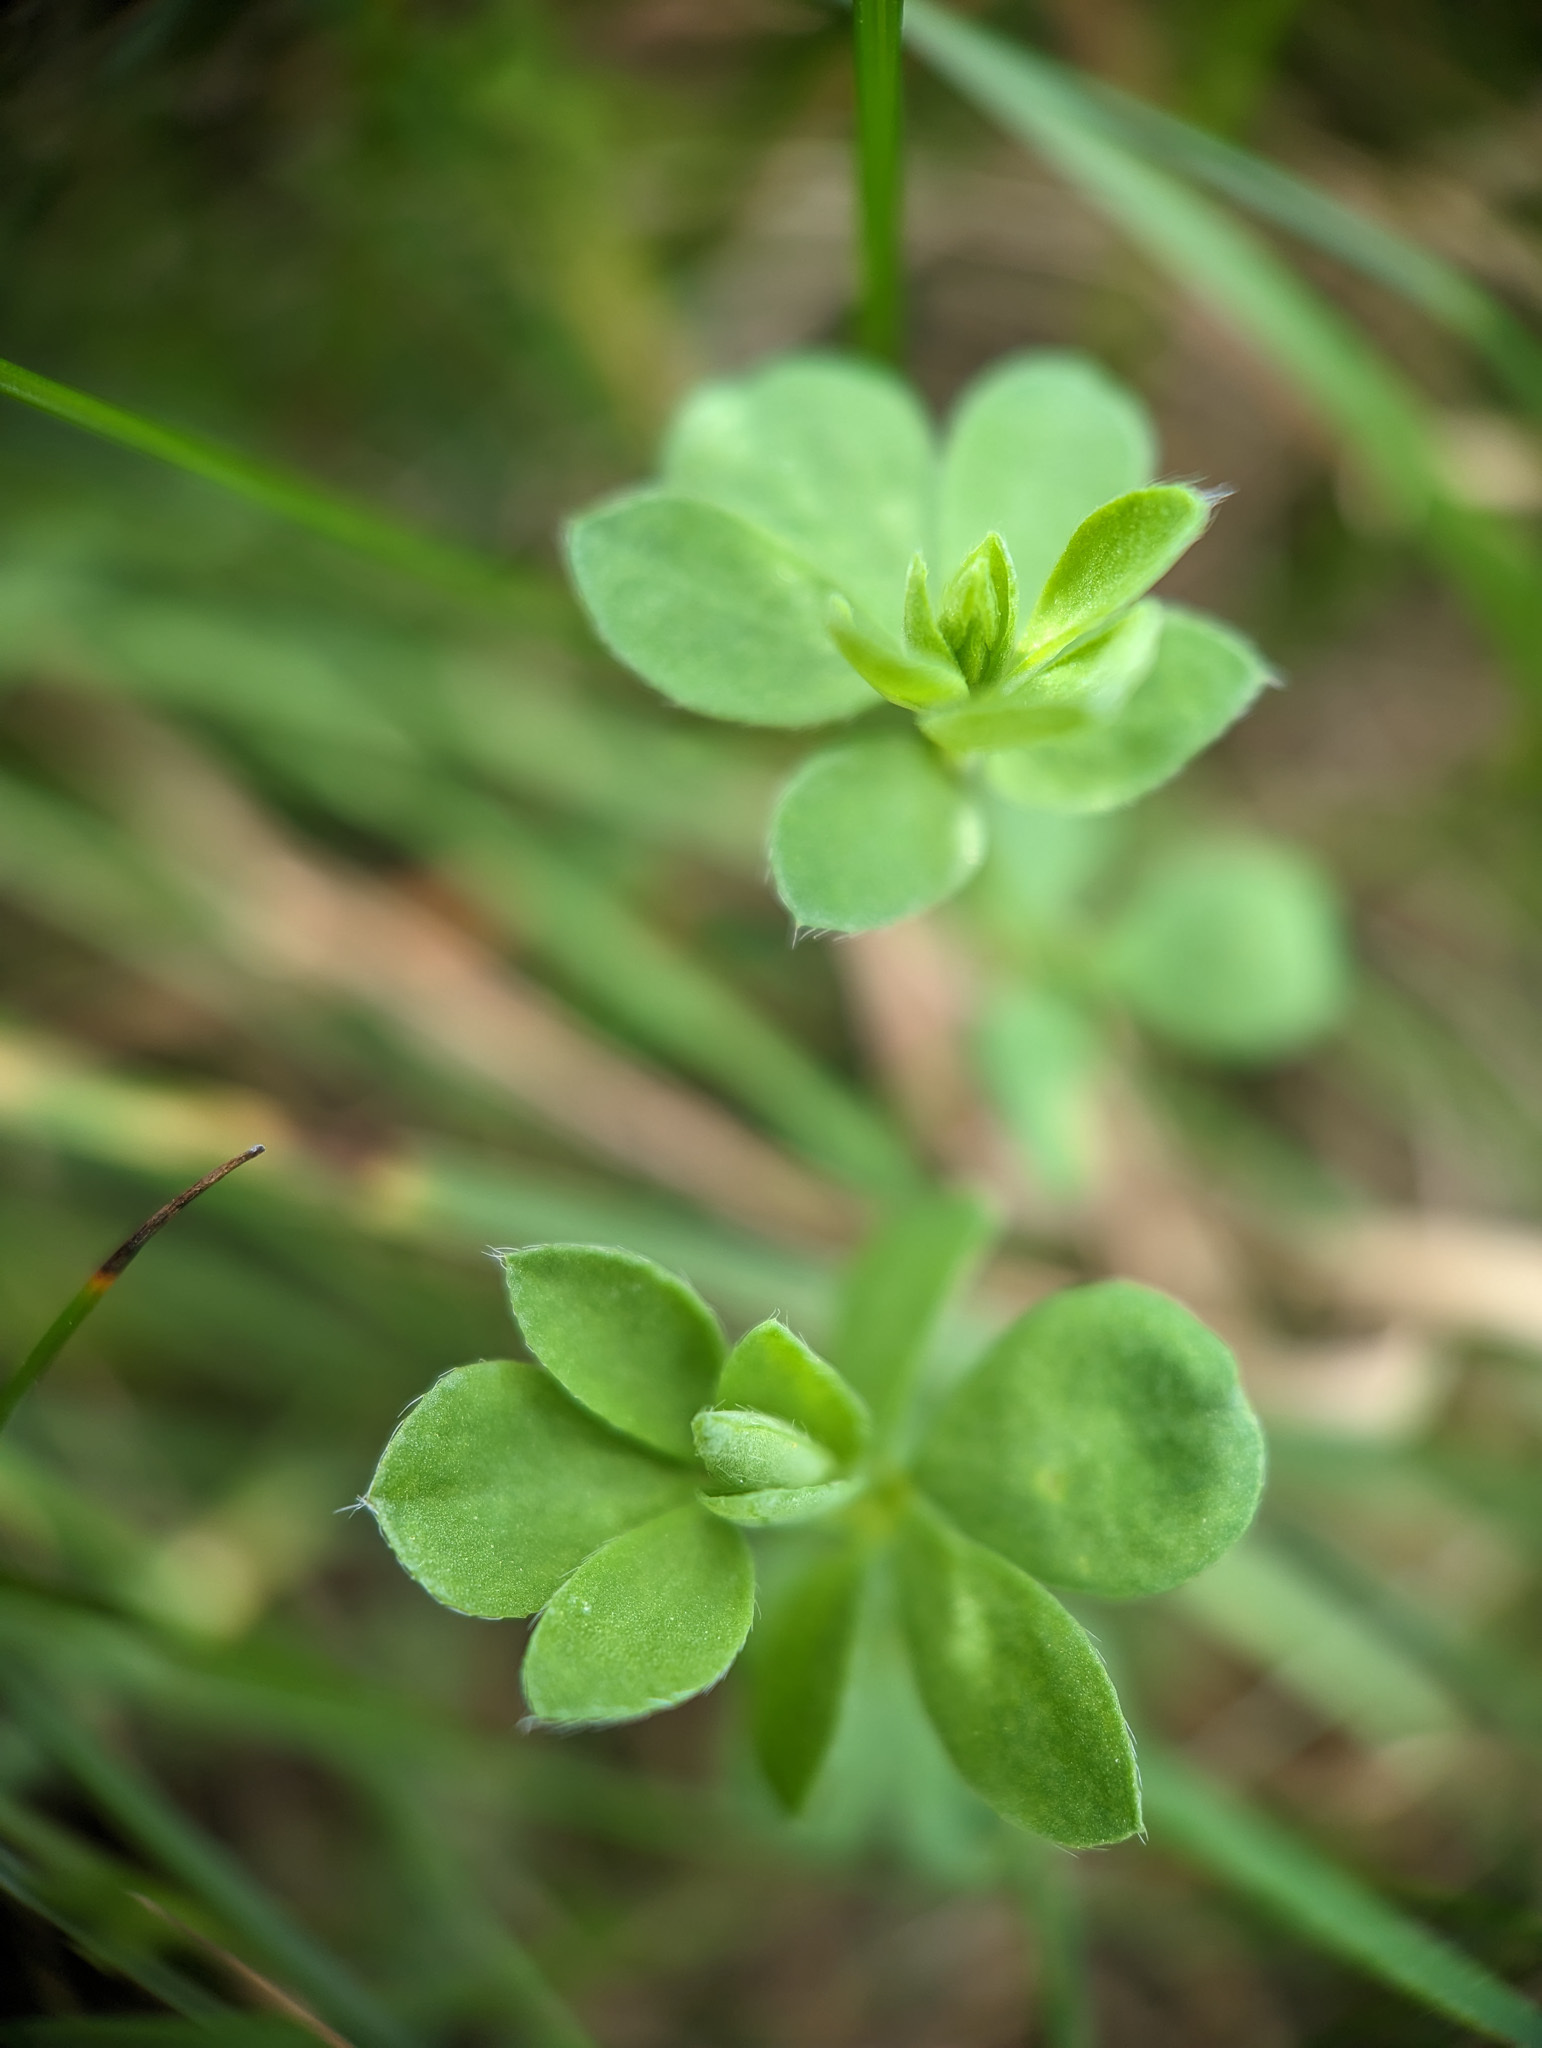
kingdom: Plantae
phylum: Tracheophyta
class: Magnoliopsida
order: Fabales
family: Fabaceae
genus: Lotus
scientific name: Lotus corniculatus
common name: Common bird's-foot-trefoil
